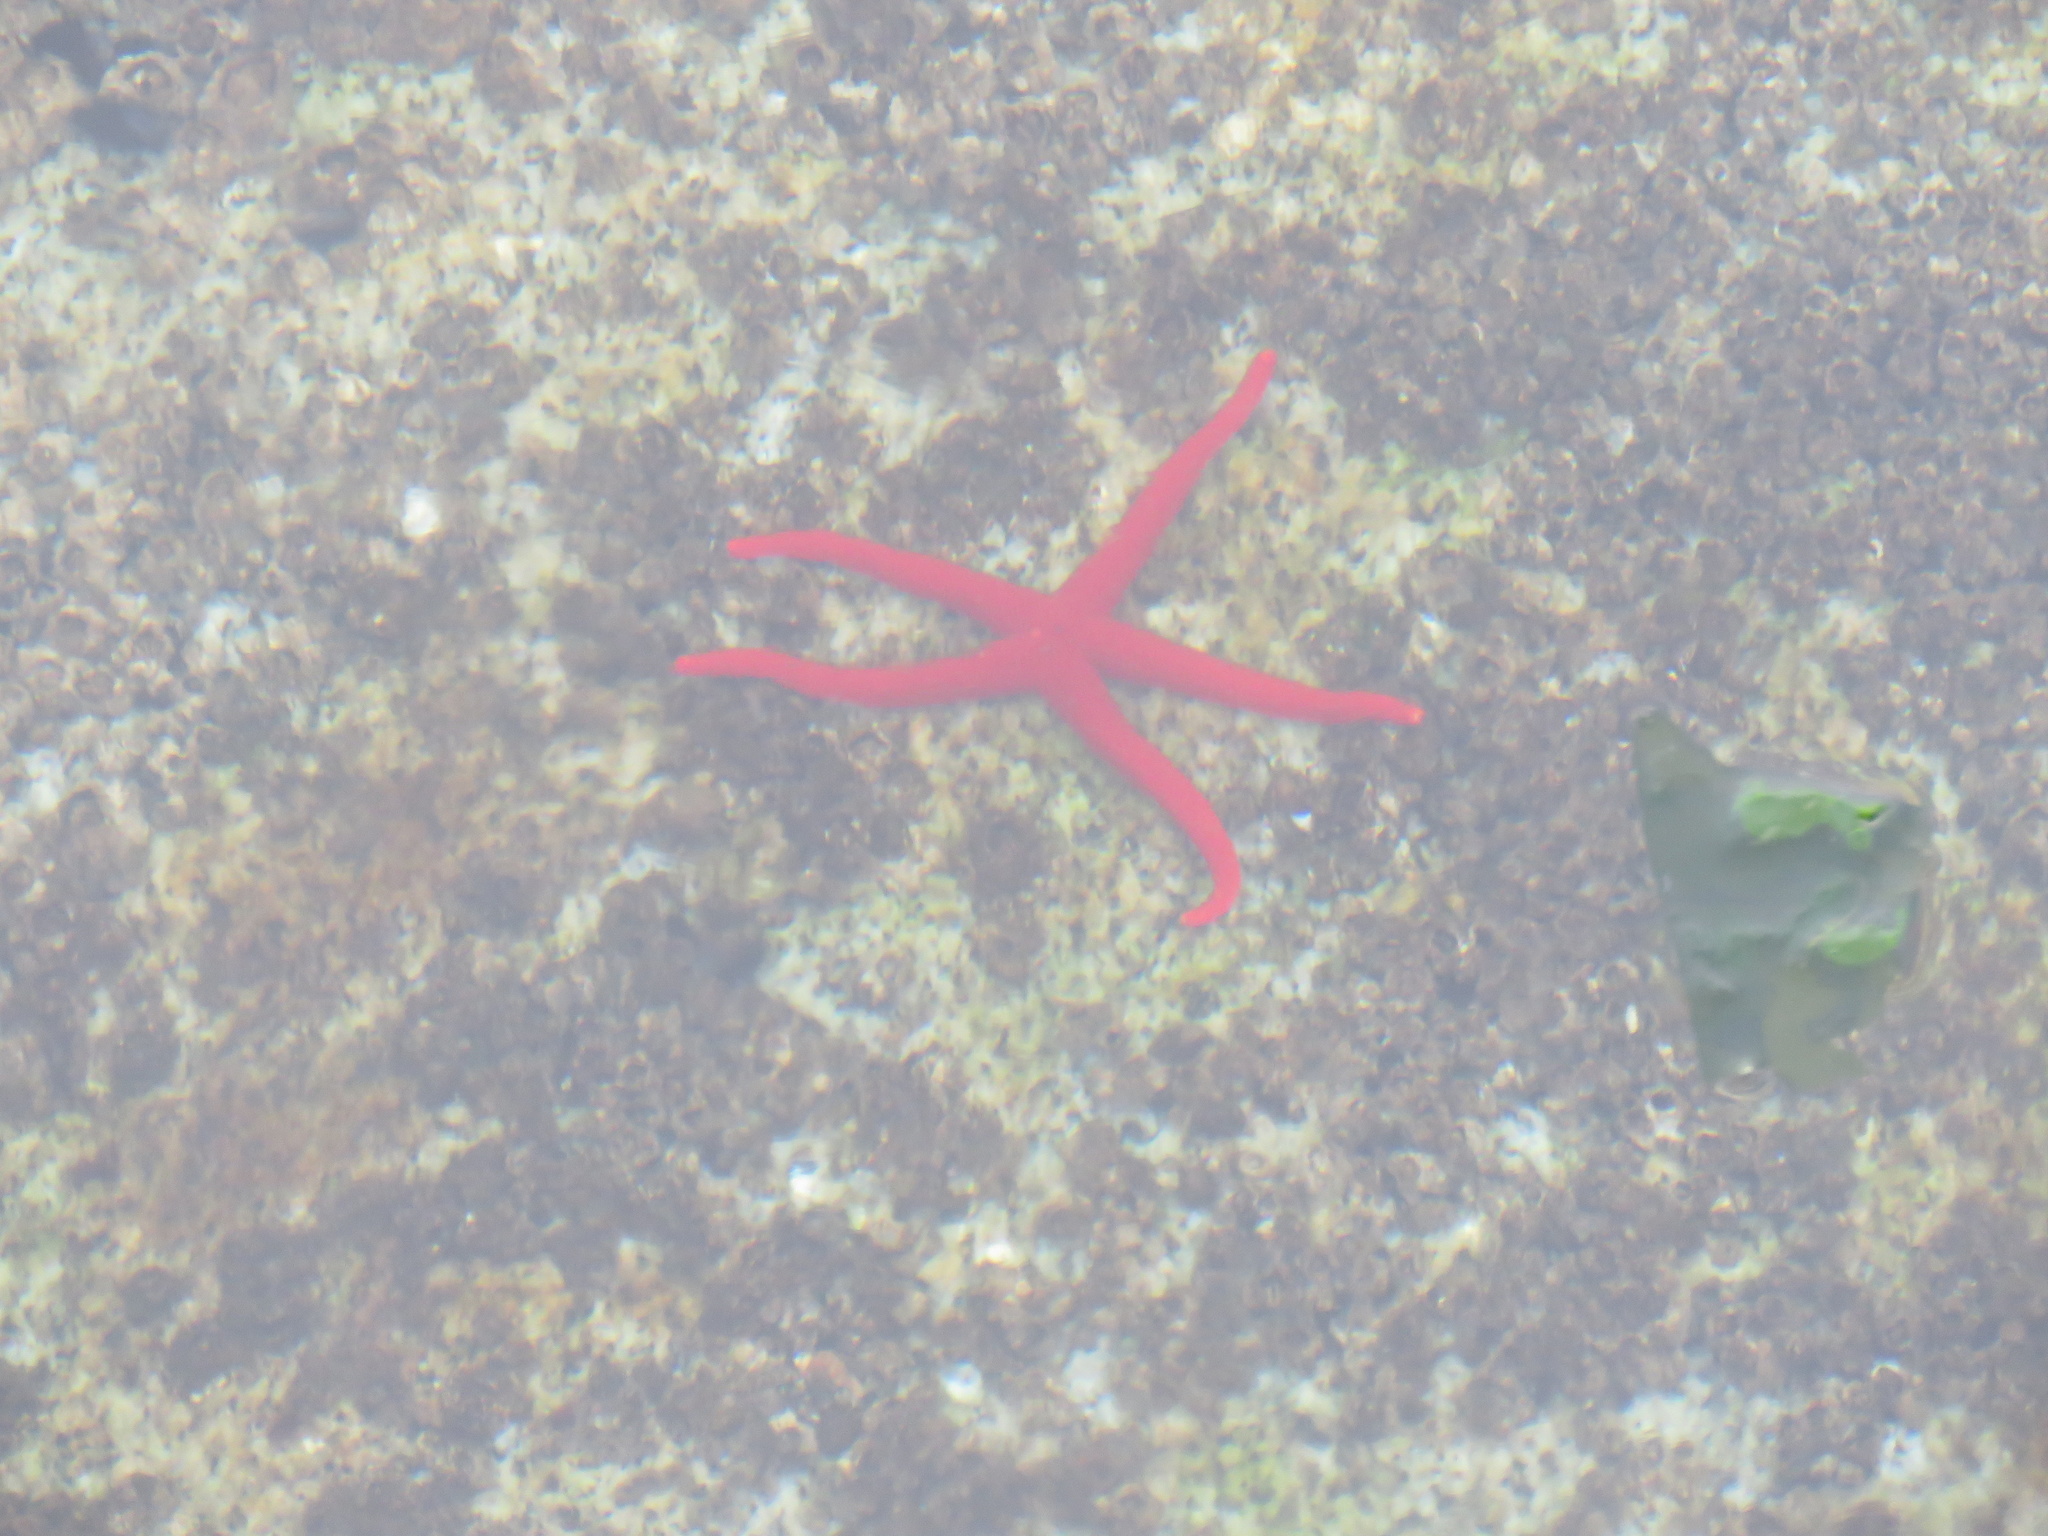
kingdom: Animalia
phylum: Echinodermata
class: Asteroidea
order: Spinulosida
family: Echinasteridae
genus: Henricia
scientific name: Henricia leviuscula
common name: Pacific blood star
